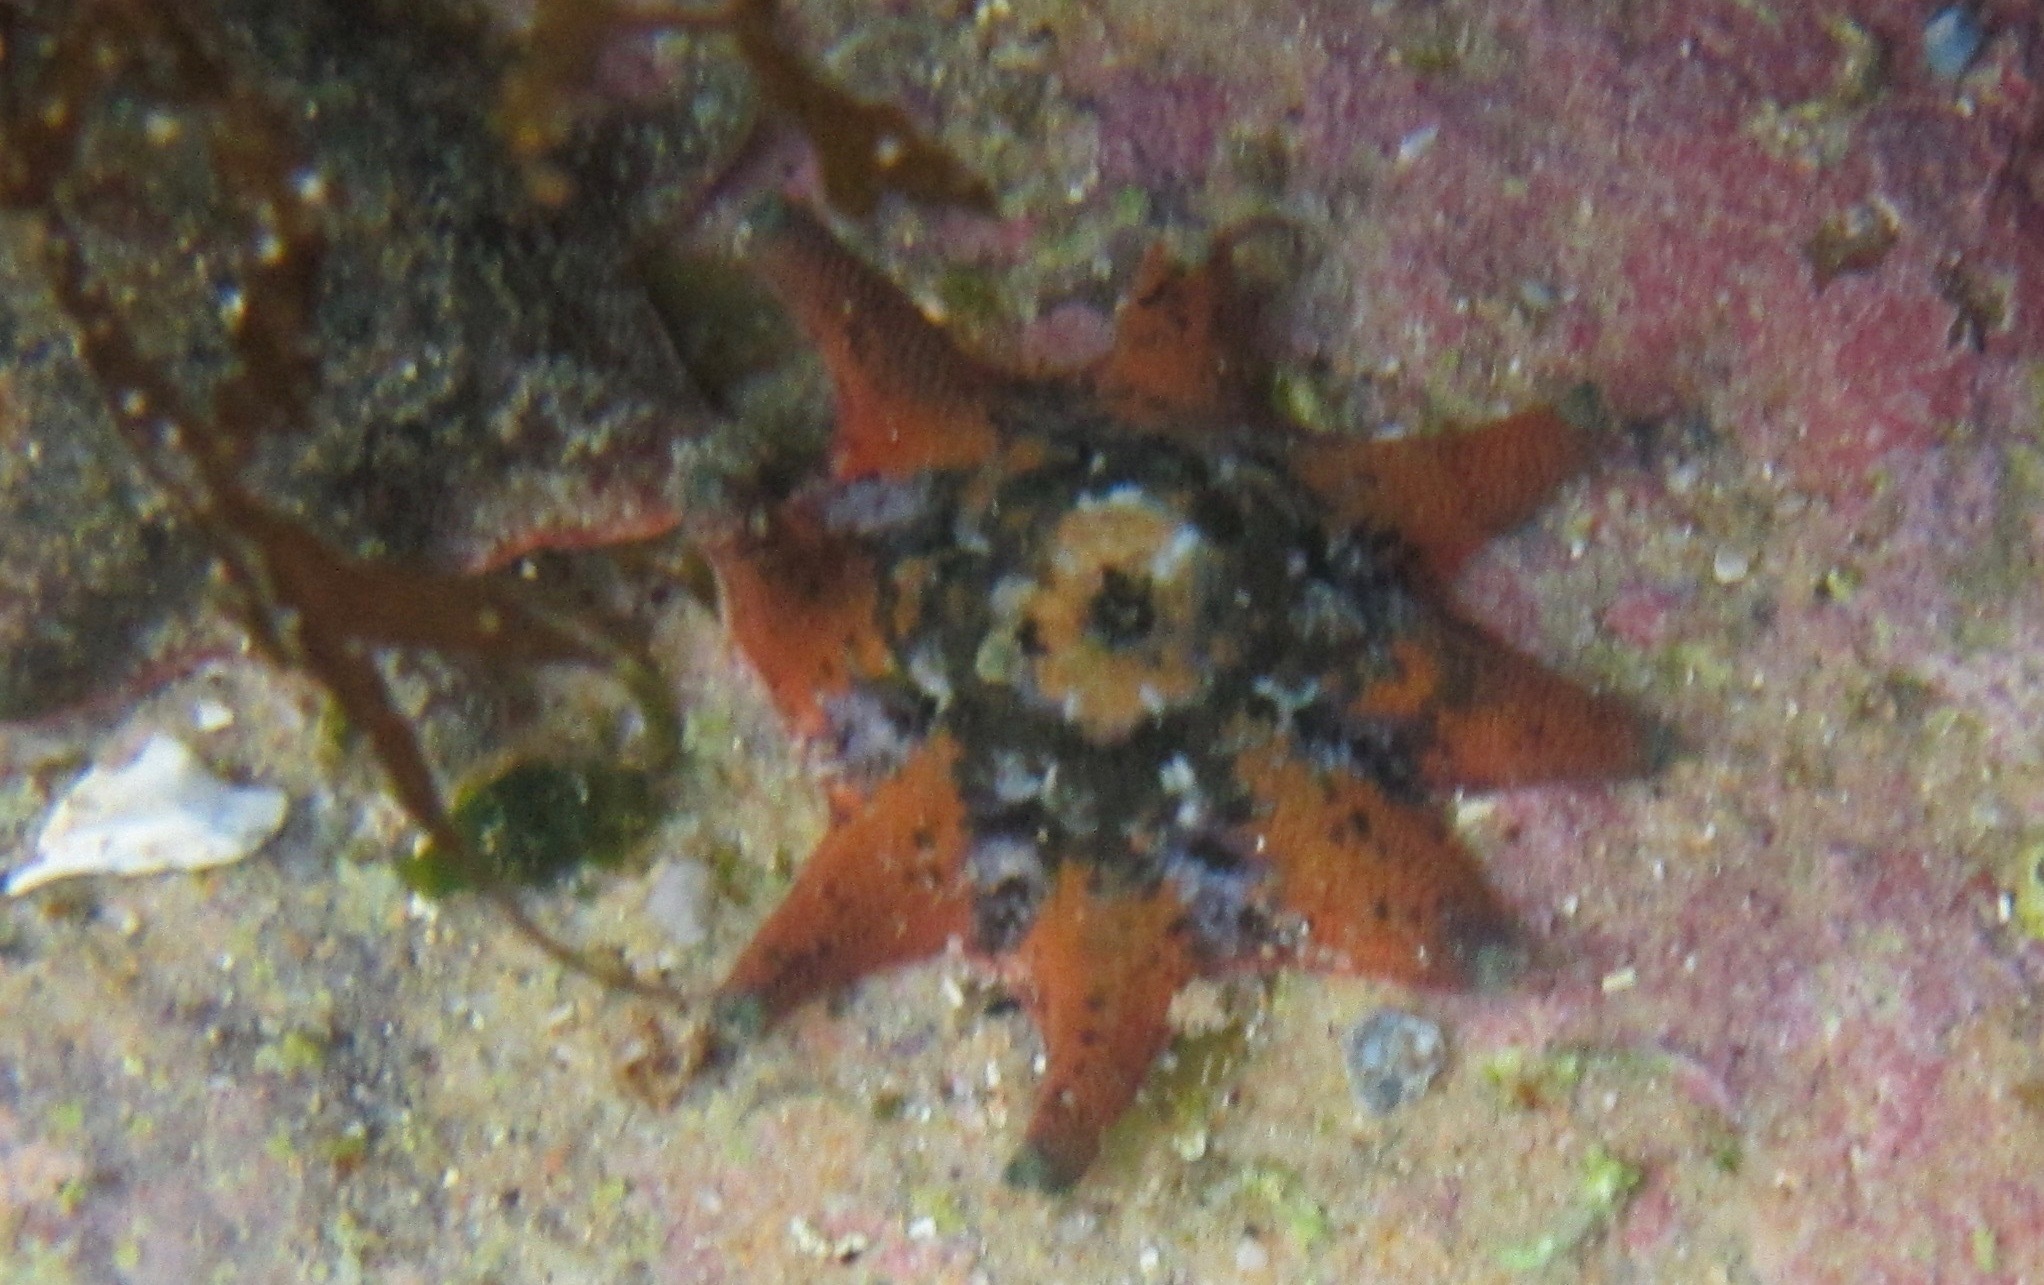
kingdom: Animalia
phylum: Echinodermata
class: Asteroidea
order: Valvatida
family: Asterinidae
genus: Meridiastra
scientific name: Meridiastra calcar
